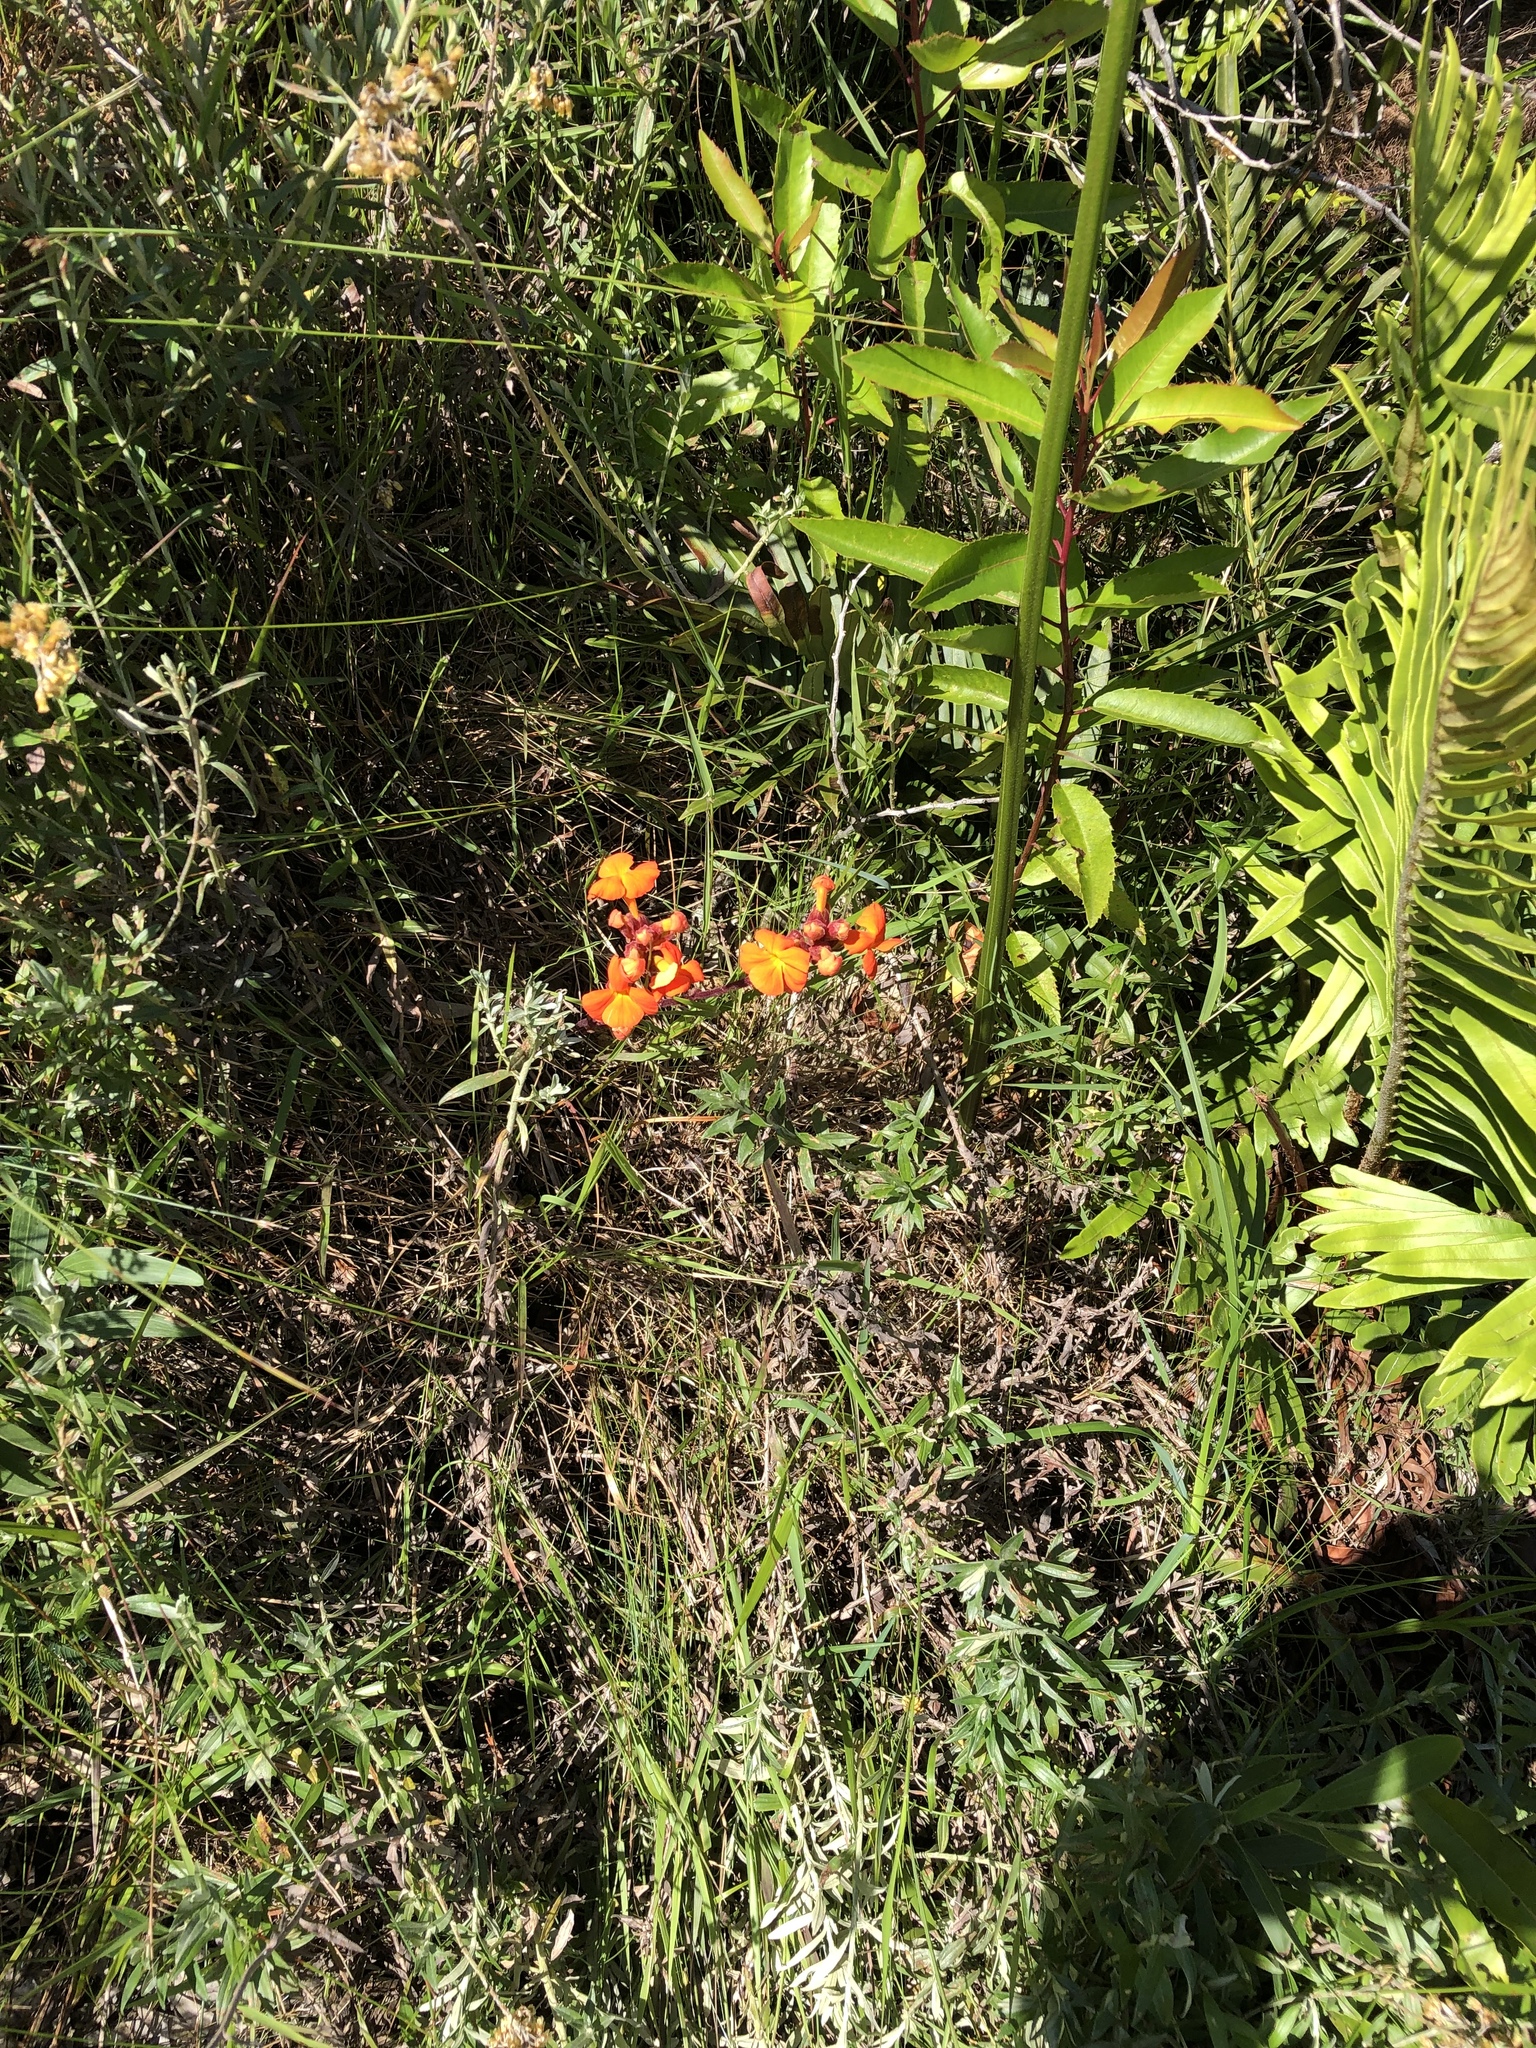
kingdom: Plantae
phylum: Tracheophyta
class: Magnoliopsida
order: Lamiales
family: Orobanchaceae
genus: Harveya
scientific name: Harveya stenosiphon
